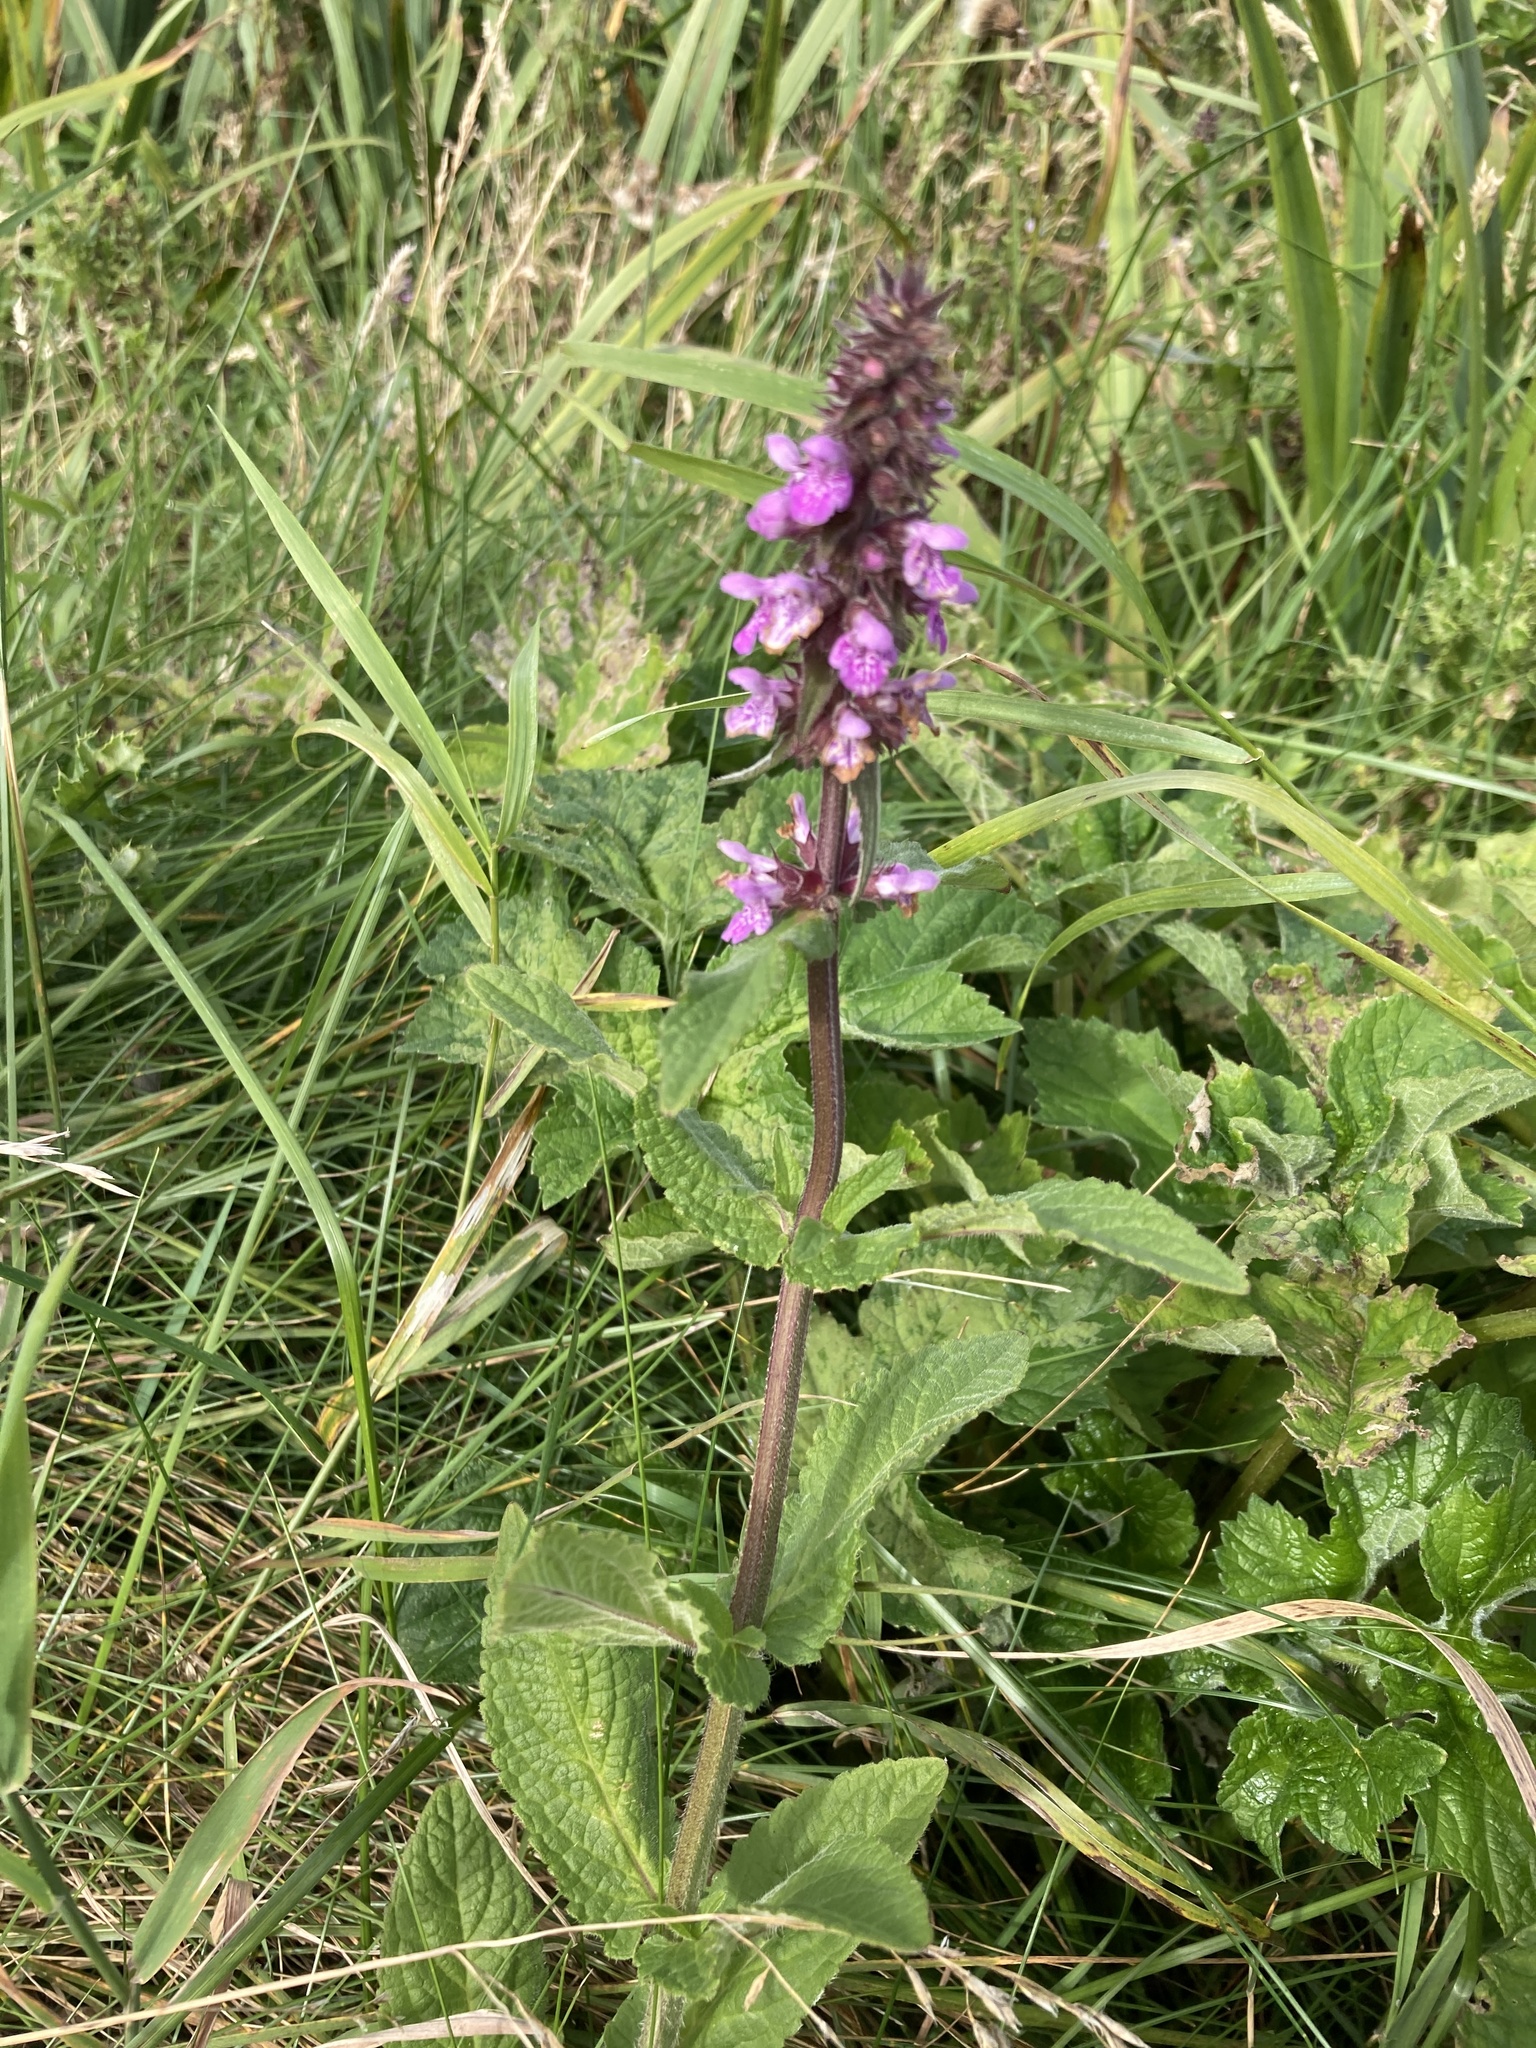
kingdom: Plantae
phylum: Tracheophyta
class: Magnoliopsida
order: Lamiales
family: Lamiaceae
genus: Stachys
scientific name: Stachys palustris
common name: Marsh woundwort
